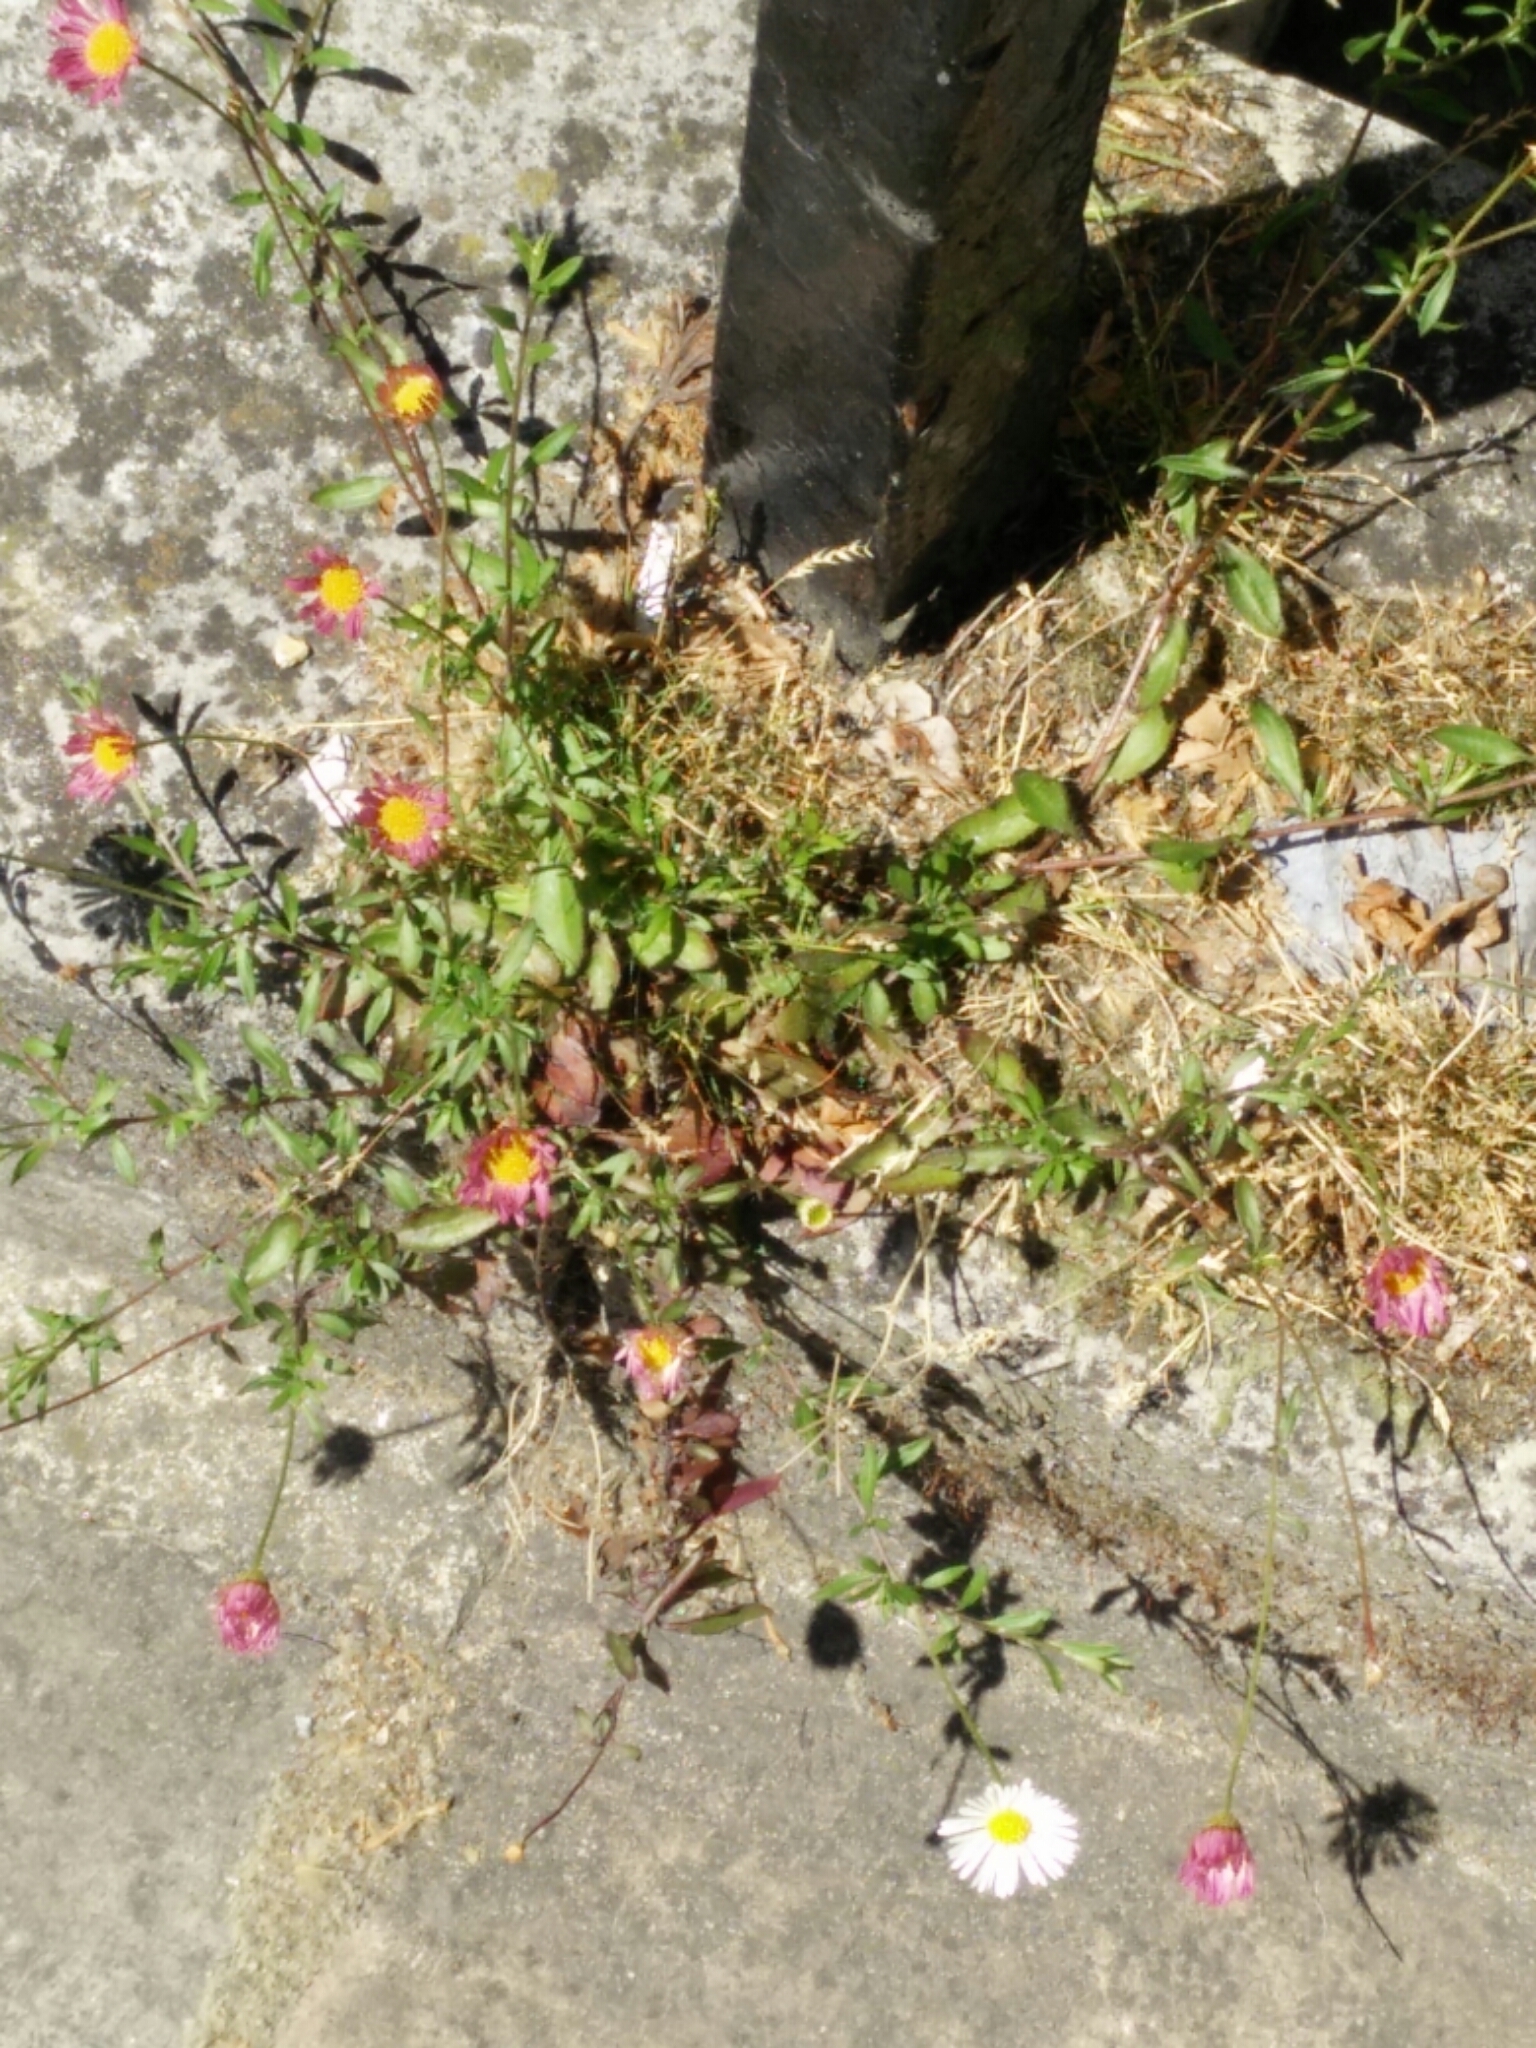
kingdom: Plantae
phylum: Tracheophyta
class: Magnoliopsida
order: Asterales
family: Asteraceae
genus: Erigeron
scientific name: Erigeron karvinskianus
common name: Mexican fleabane
